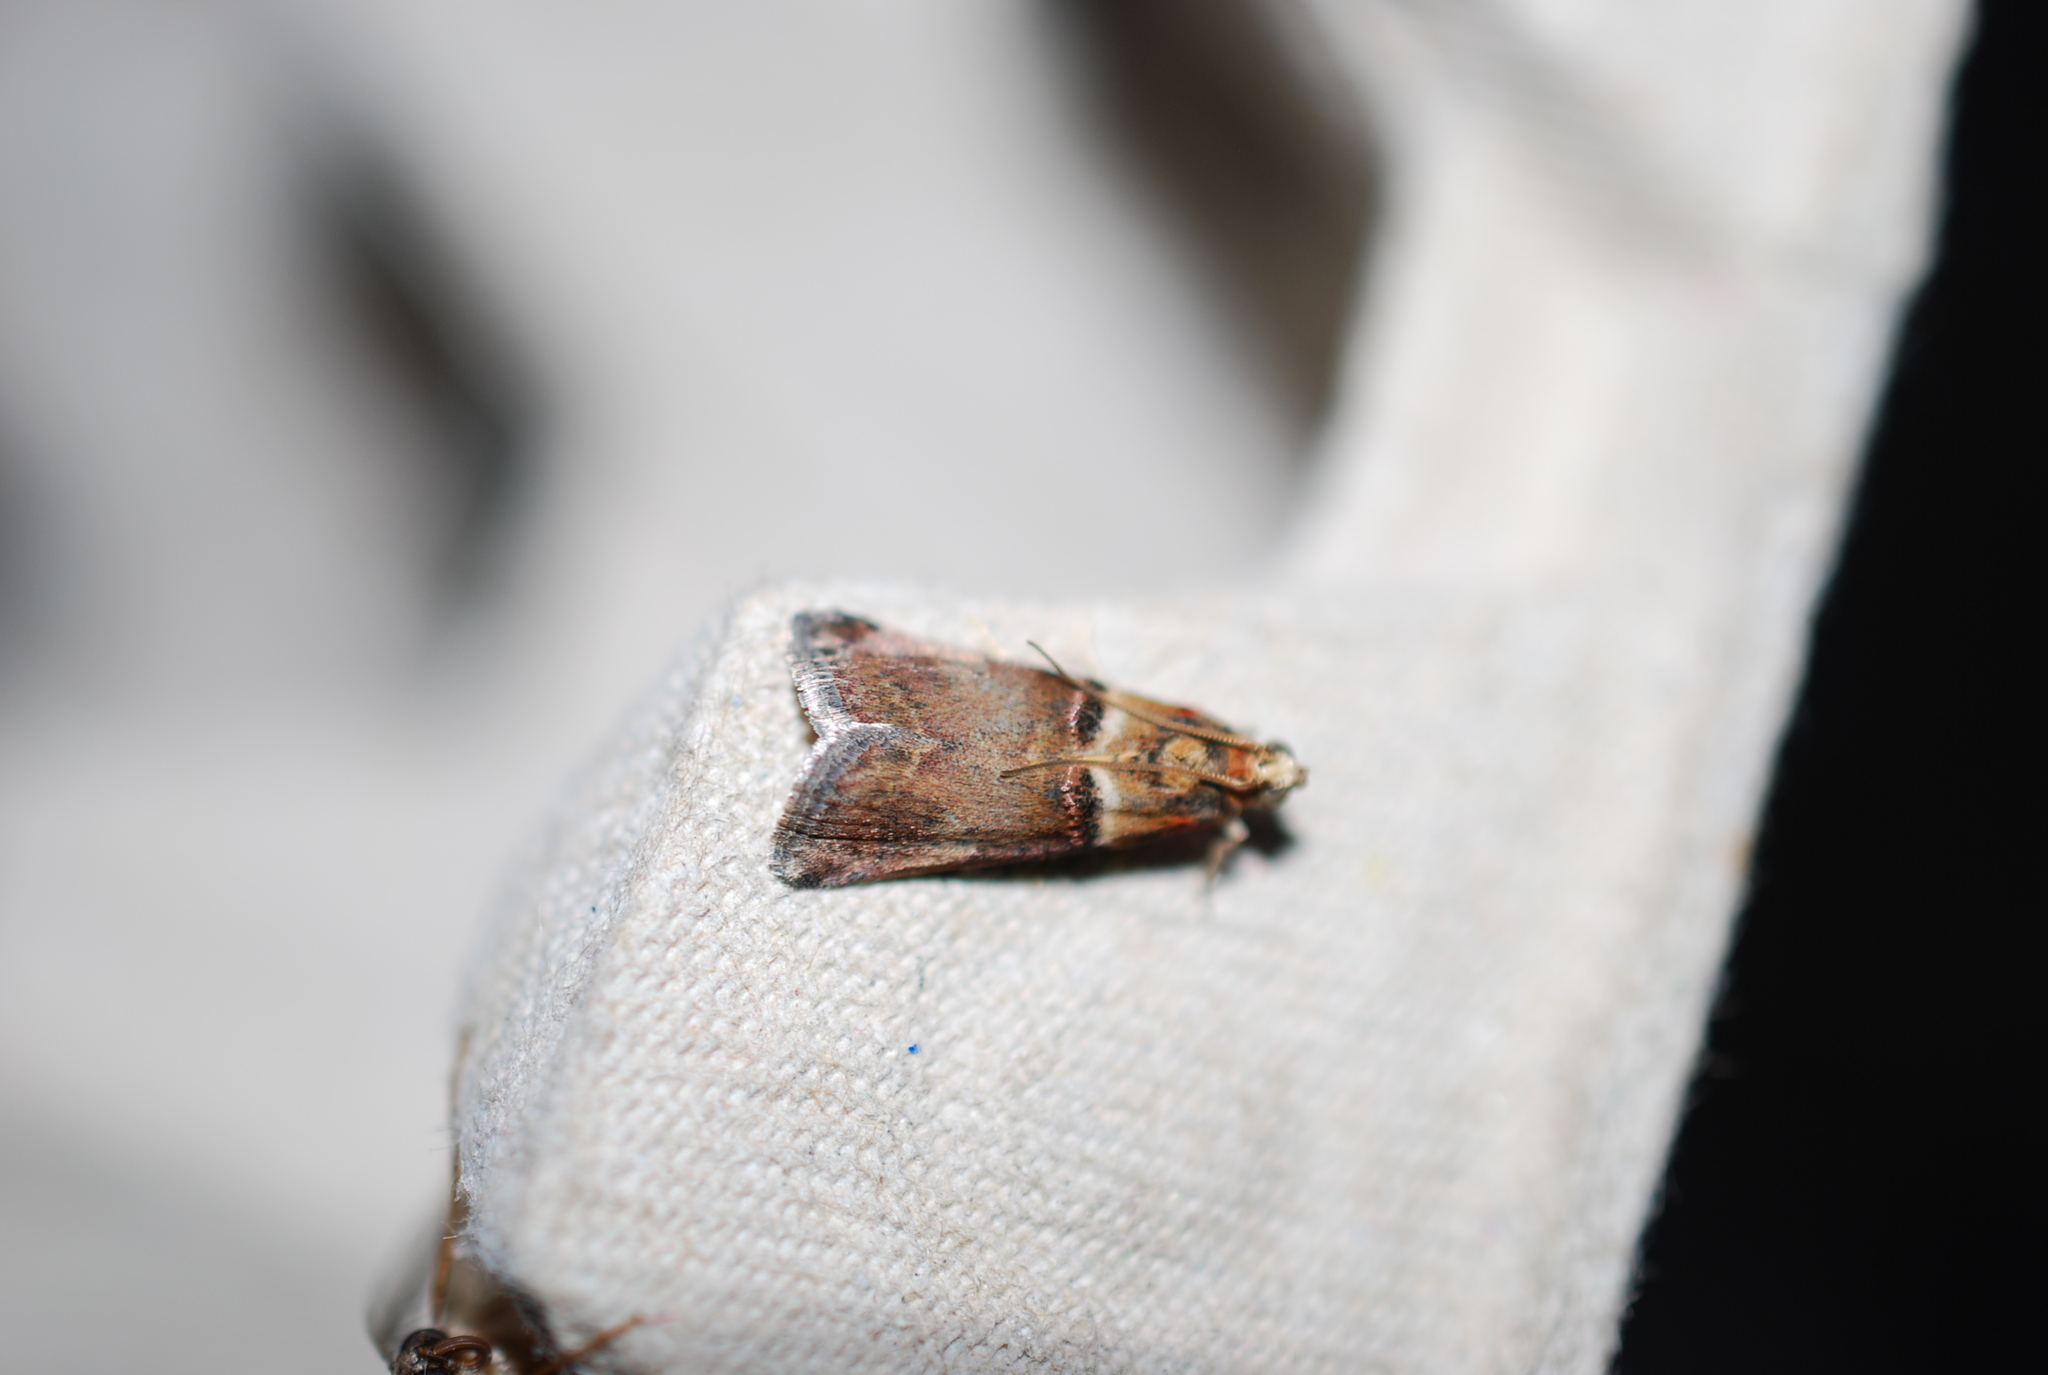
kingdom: Animalia
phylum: Arthropoda
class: Insecta
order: Lepidoptera
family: Pyralidae
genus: Acrobasis
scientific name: Acrobasis tumidana
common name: Scarce oak knot-horn
